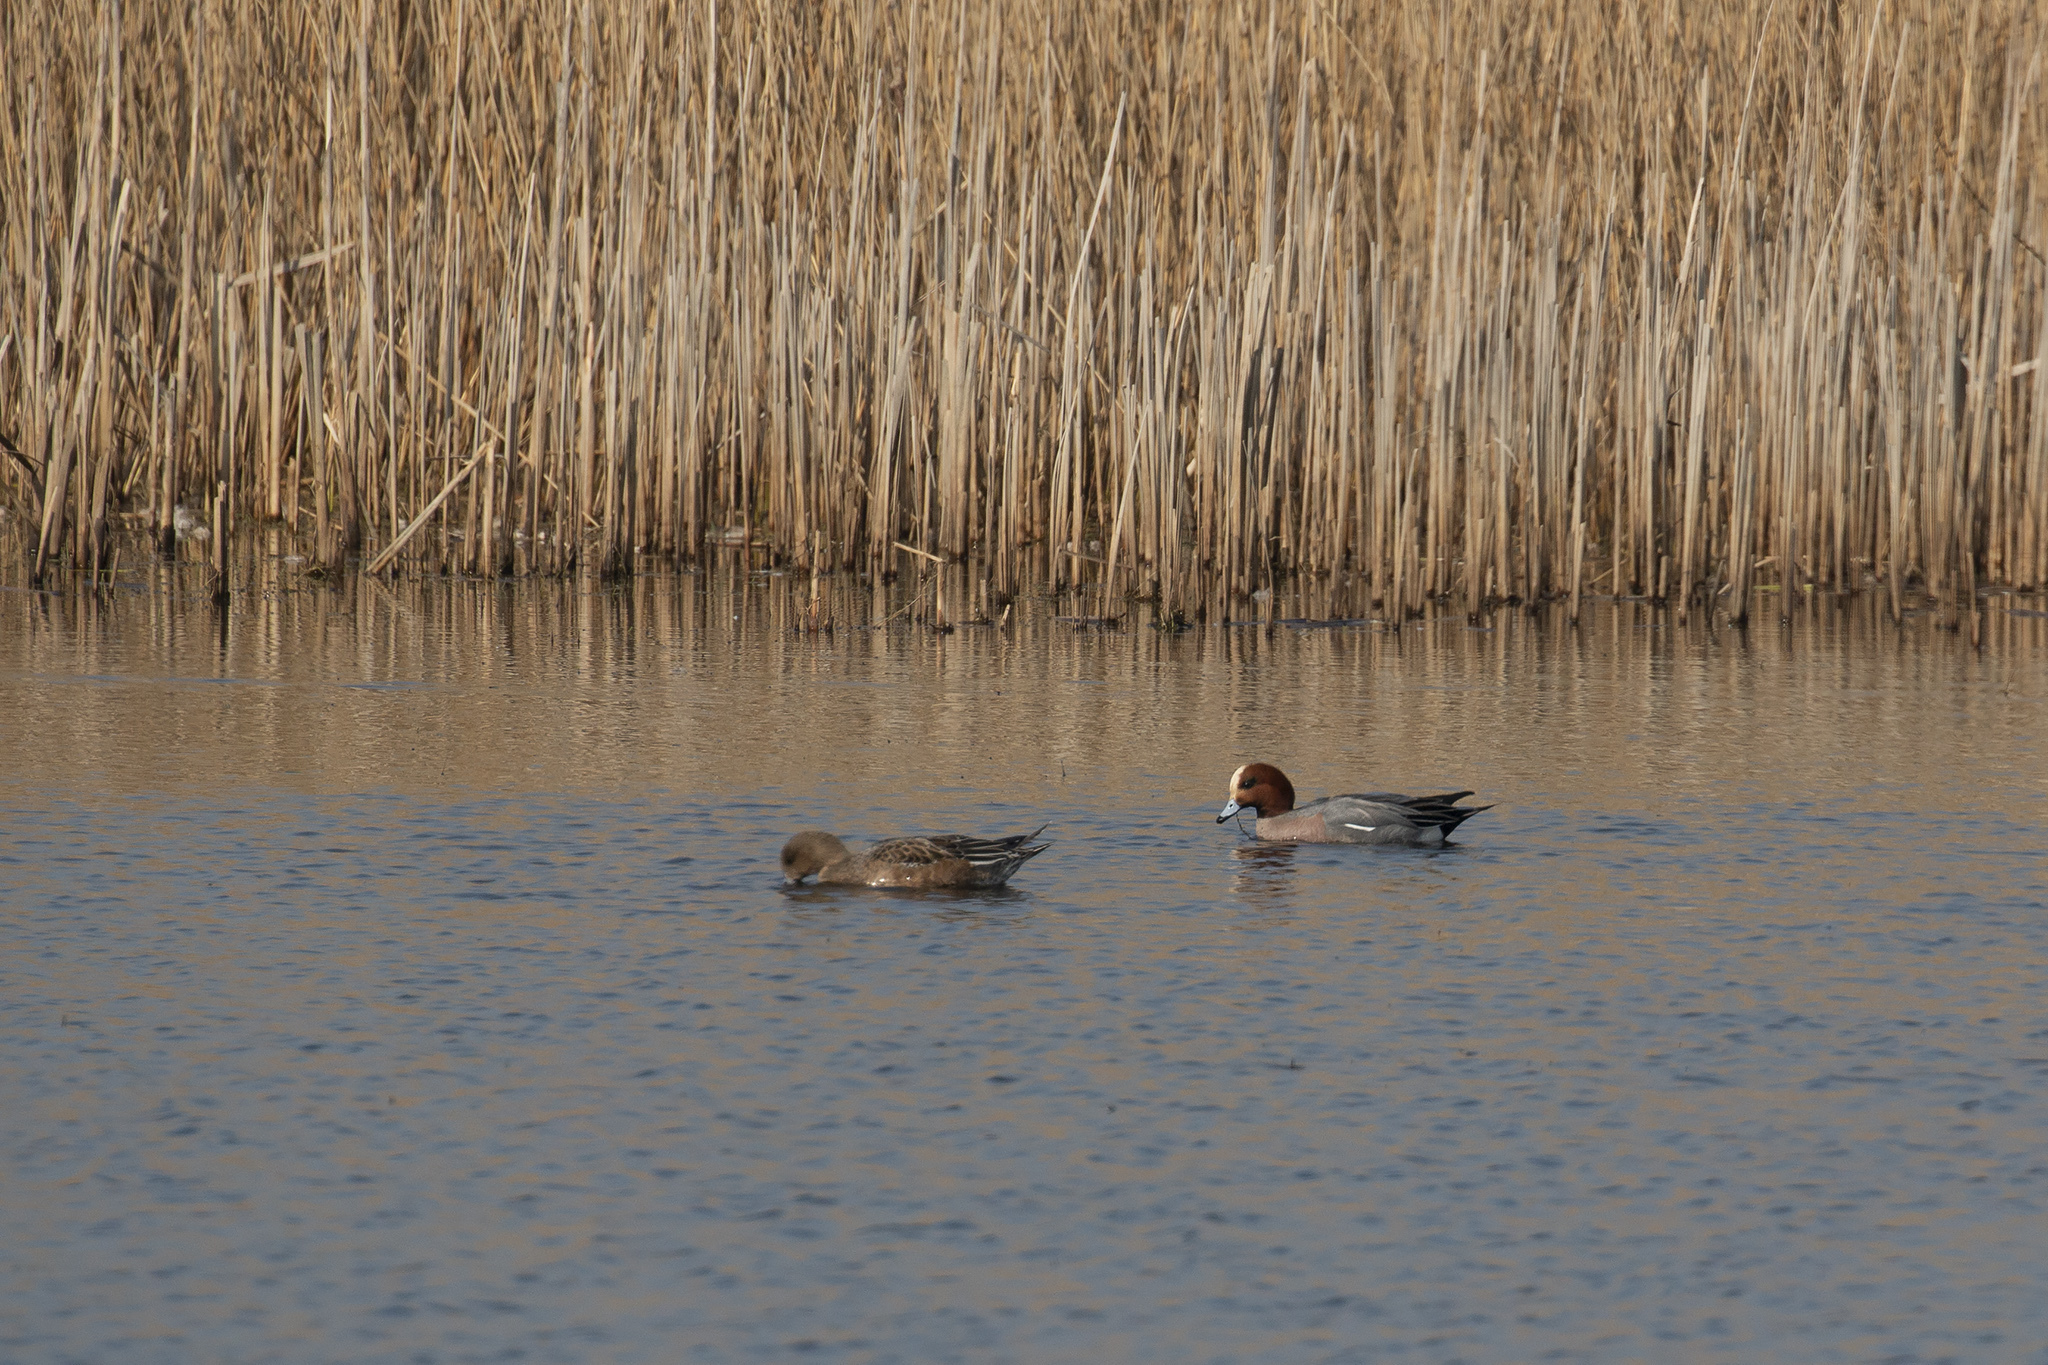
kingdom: Animalia
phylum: Chordata
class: Aves
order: Anseriformes
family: Anatidae
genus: Mareca
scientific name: Mareca penelope
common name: Eurasian wigeon
